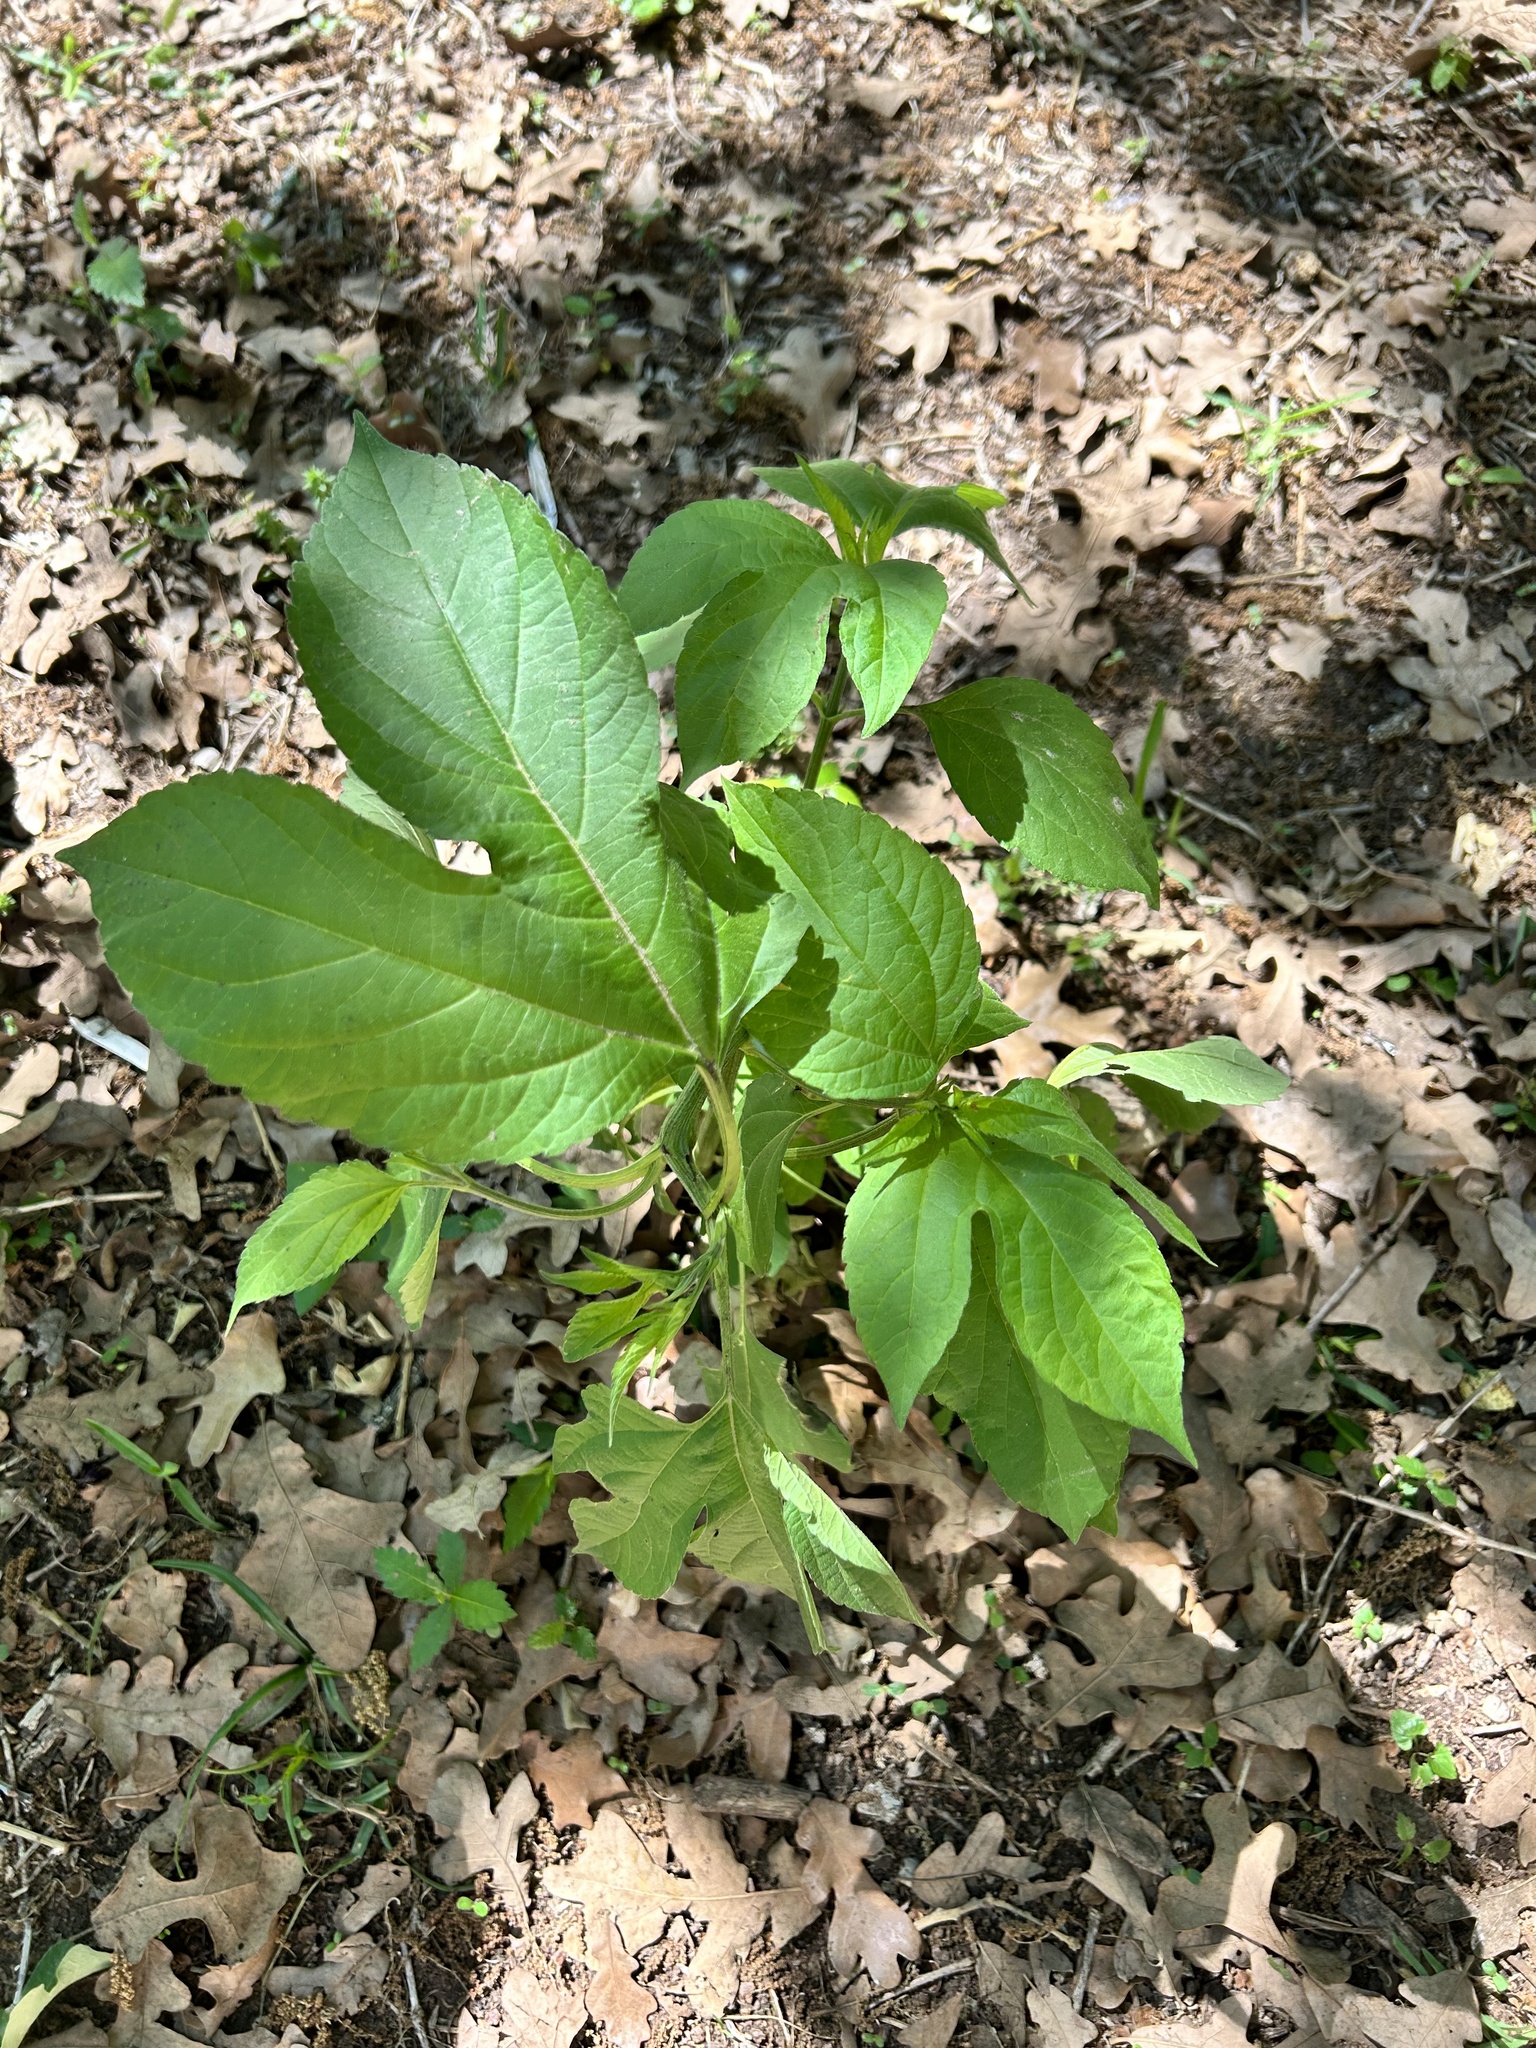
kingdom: Plantae
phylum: Tracheophyta
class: Magnoliopsida
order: Asterales
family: Asteraceae
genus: Ambrosia
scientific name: Ambrosia trifida
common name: Giant ragweed
